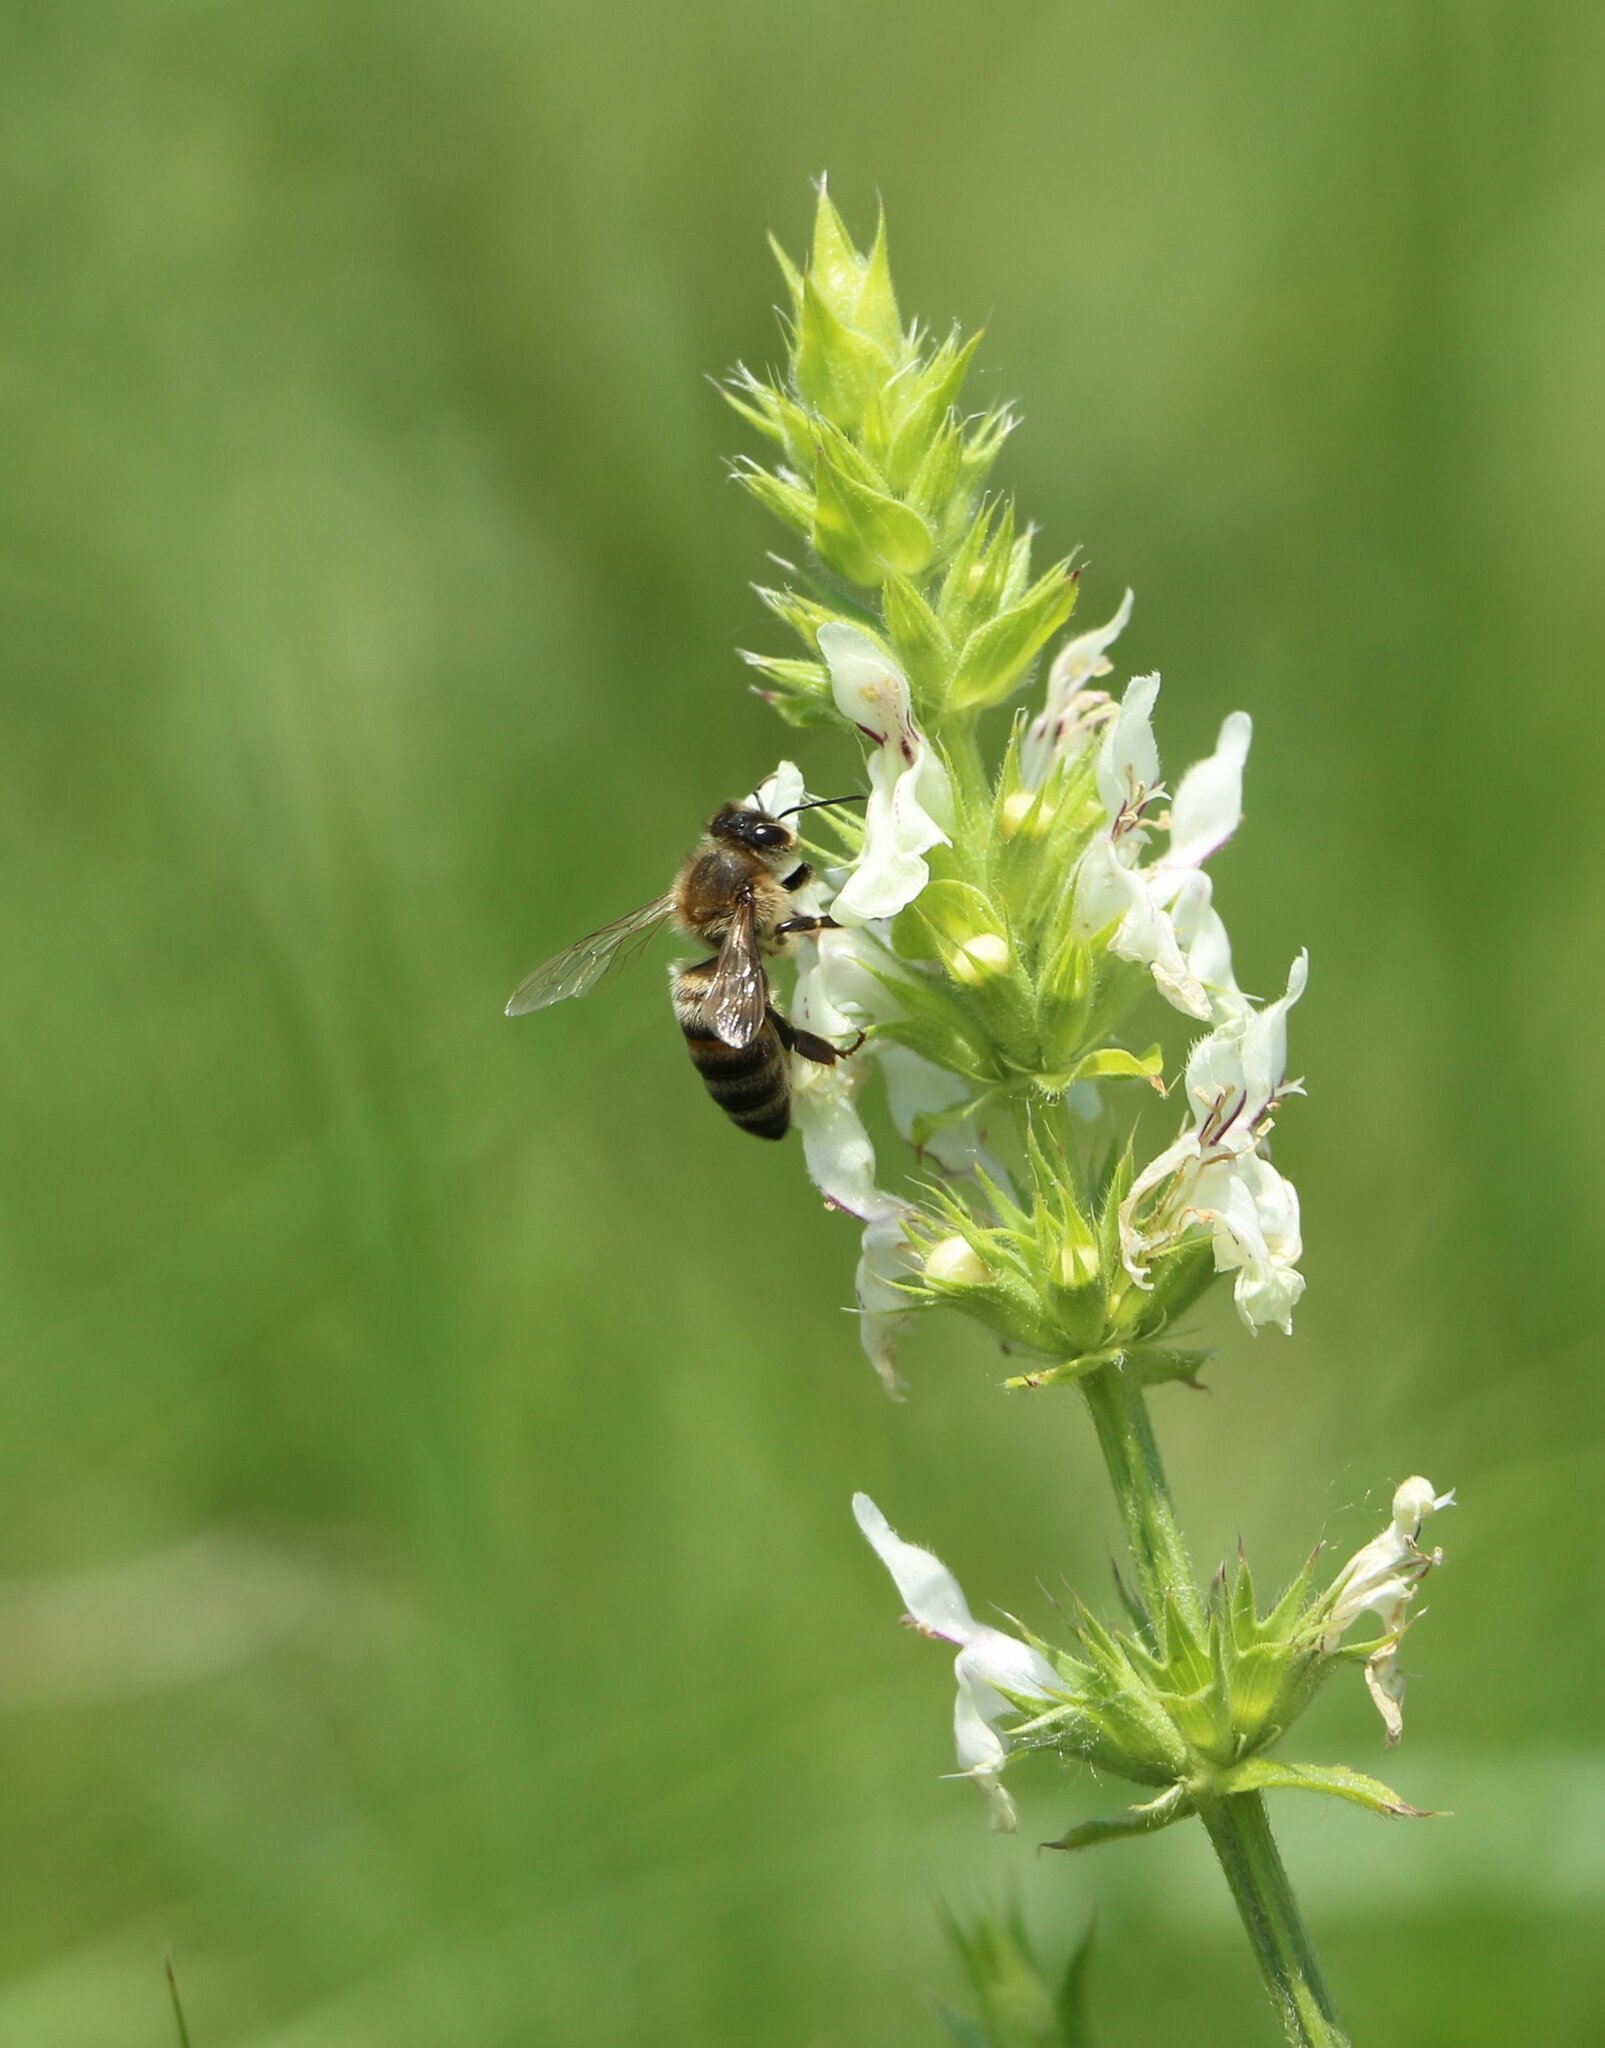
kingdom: Animalia
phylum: Arthropoda
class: Insecta
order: Hymenoptera
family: Apidae
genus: Apis
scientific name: Apis mellifera
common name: Honey bee
